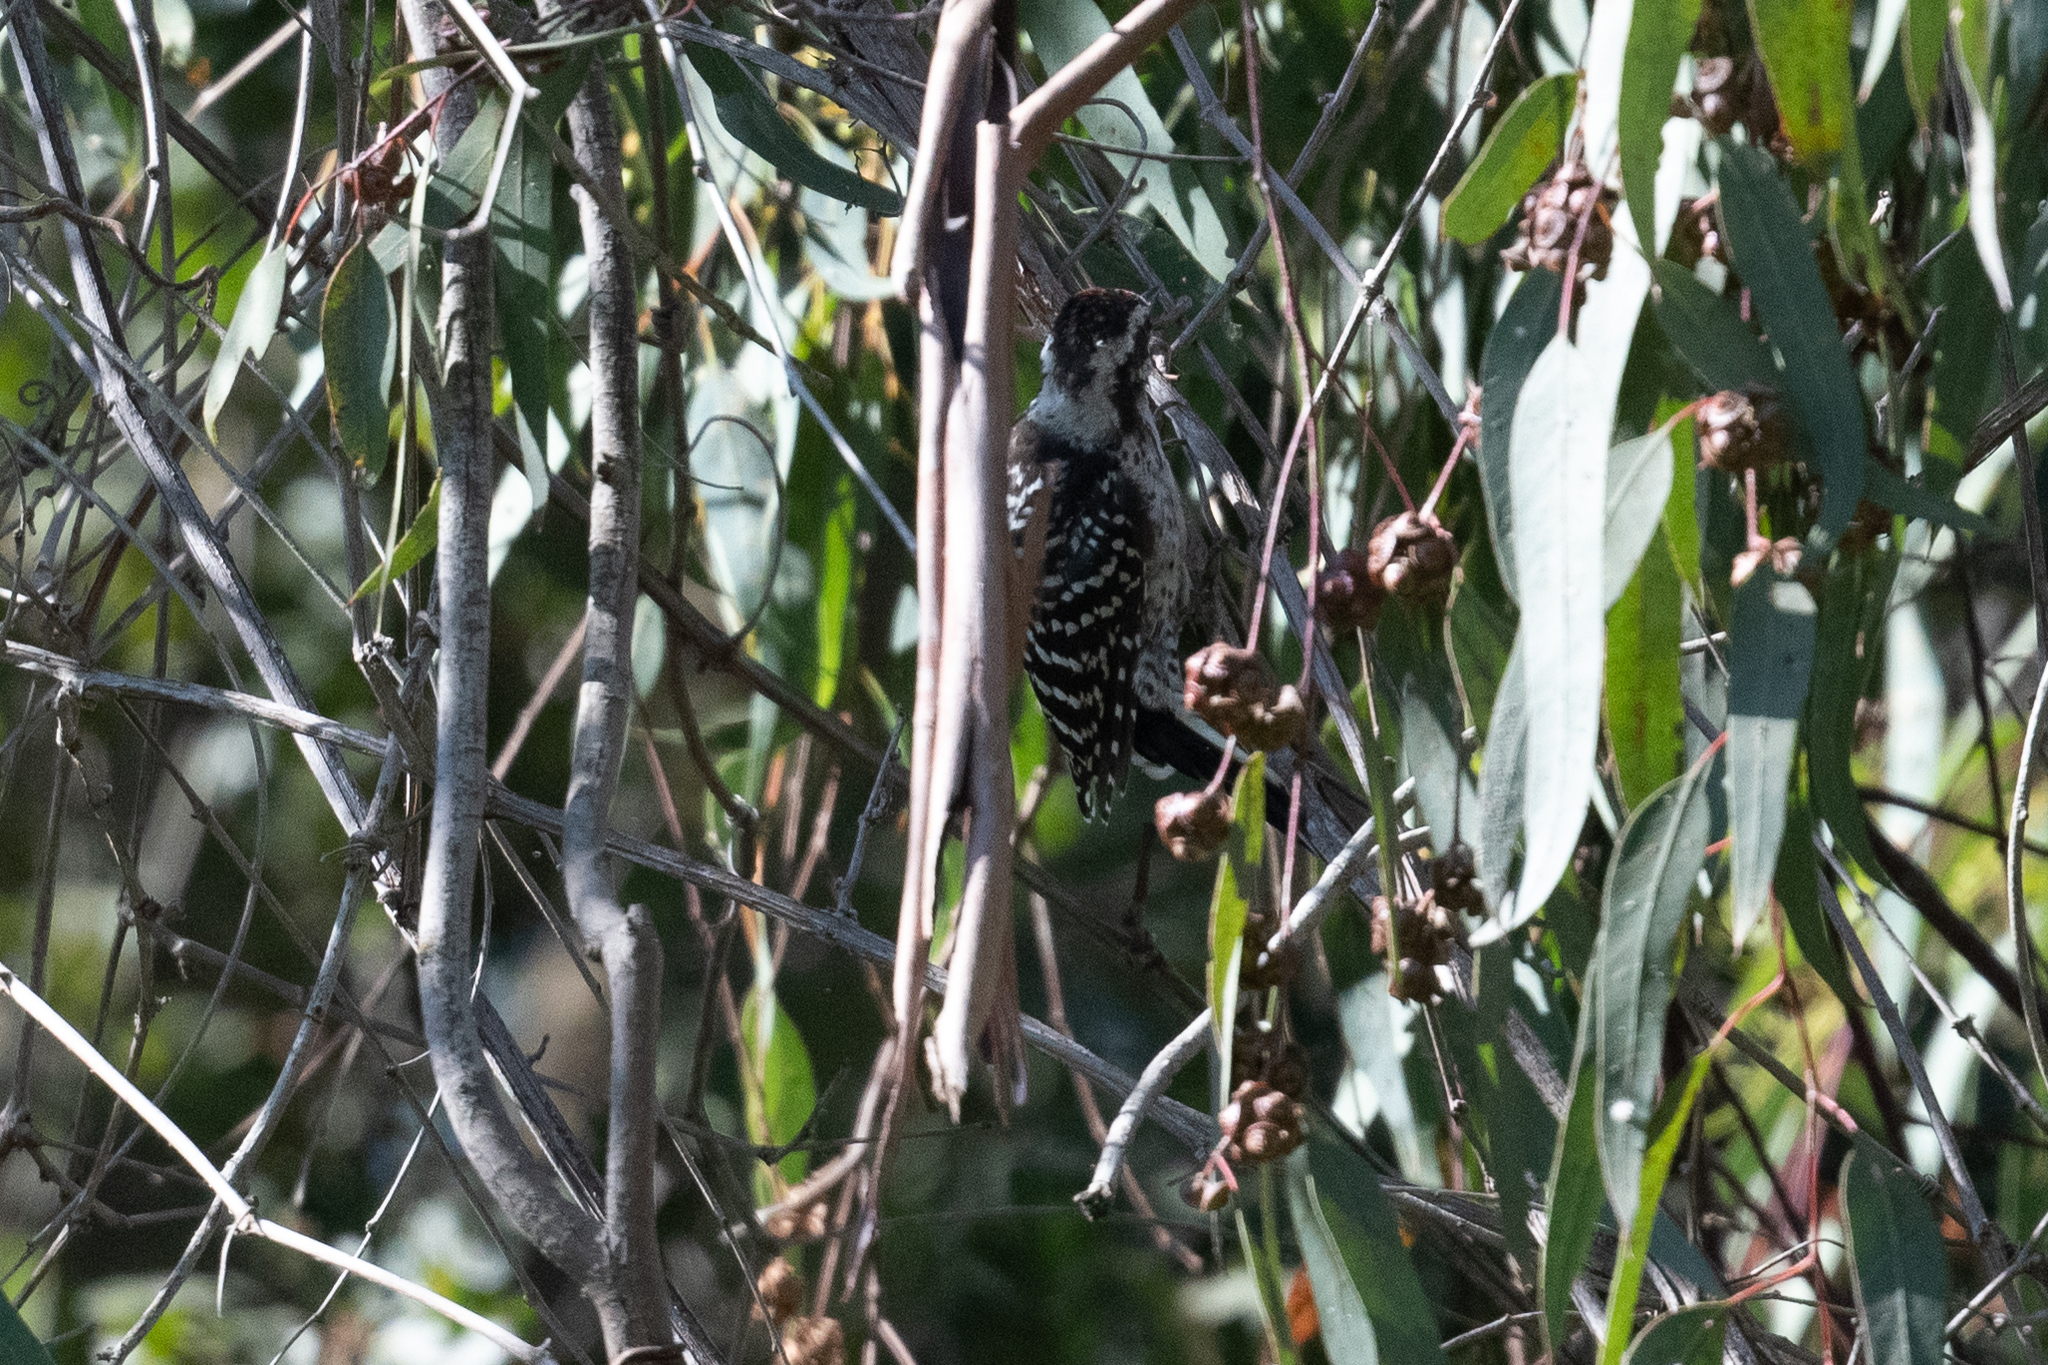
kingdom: Animalia
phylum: Chordata
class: Aves
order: Passeriformes
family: Turdidae
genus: Turdus
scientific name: Turdus migratorius
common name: American robin
